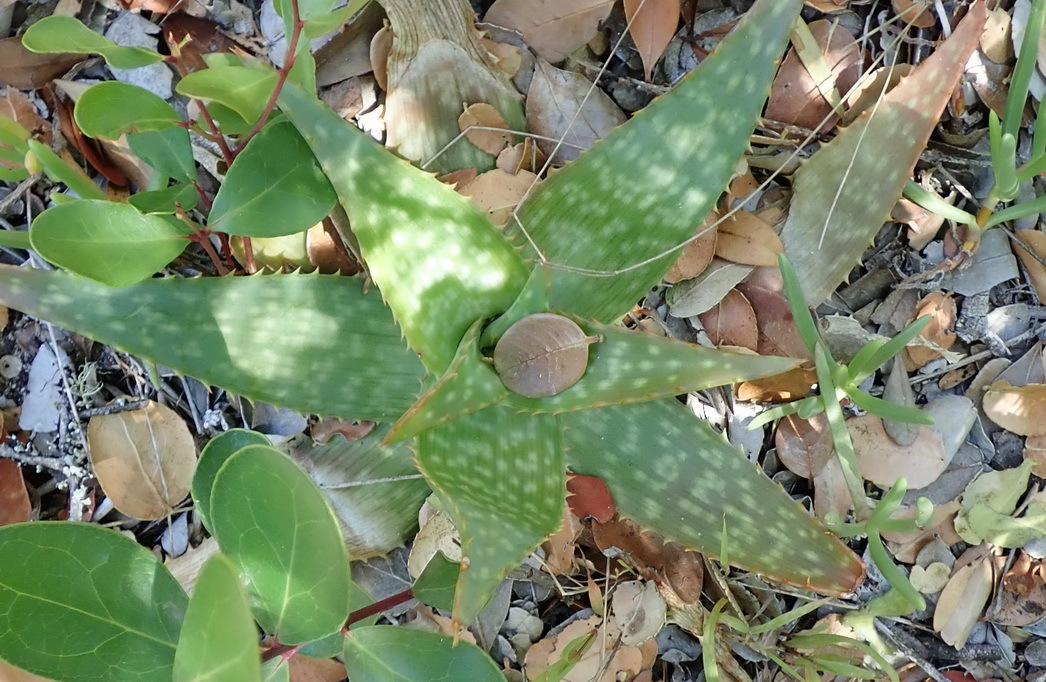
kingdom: Plantae
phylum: Tracheophyta
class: Liliopsida
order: Asparagales
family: Asphodelaceae
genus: Aloe
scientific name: Aloe maculata
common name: Broadleaf aloe
